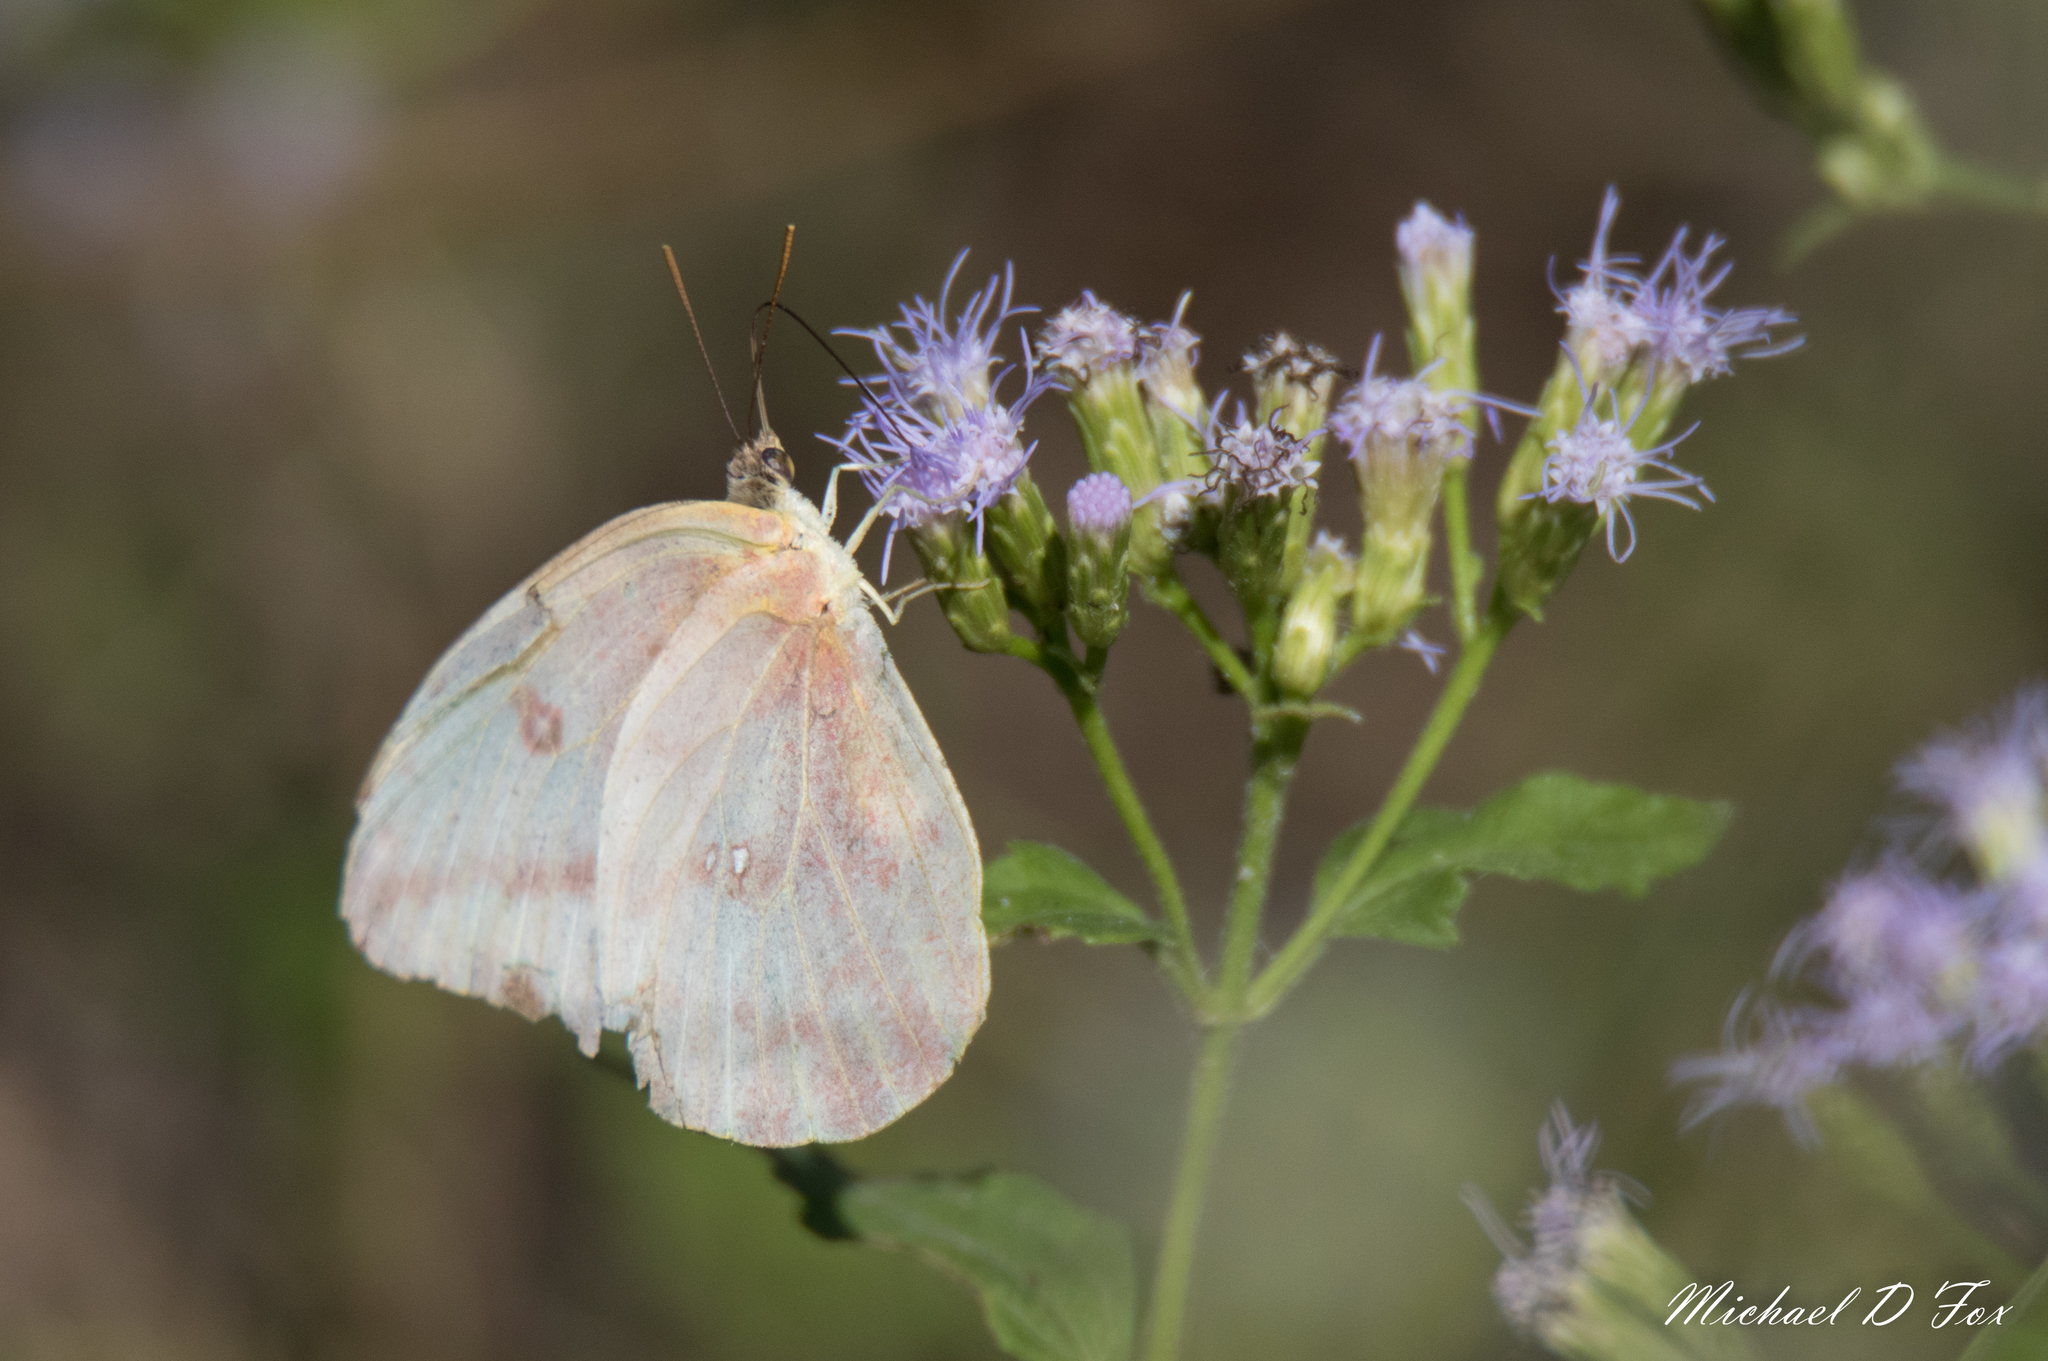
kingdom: Animalia
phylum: Arthropoda
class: Insecta
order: Lepidoptera
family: Pieridae
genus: Phoebis
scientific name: Phoebis agarithe
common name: Large orange sulphur
